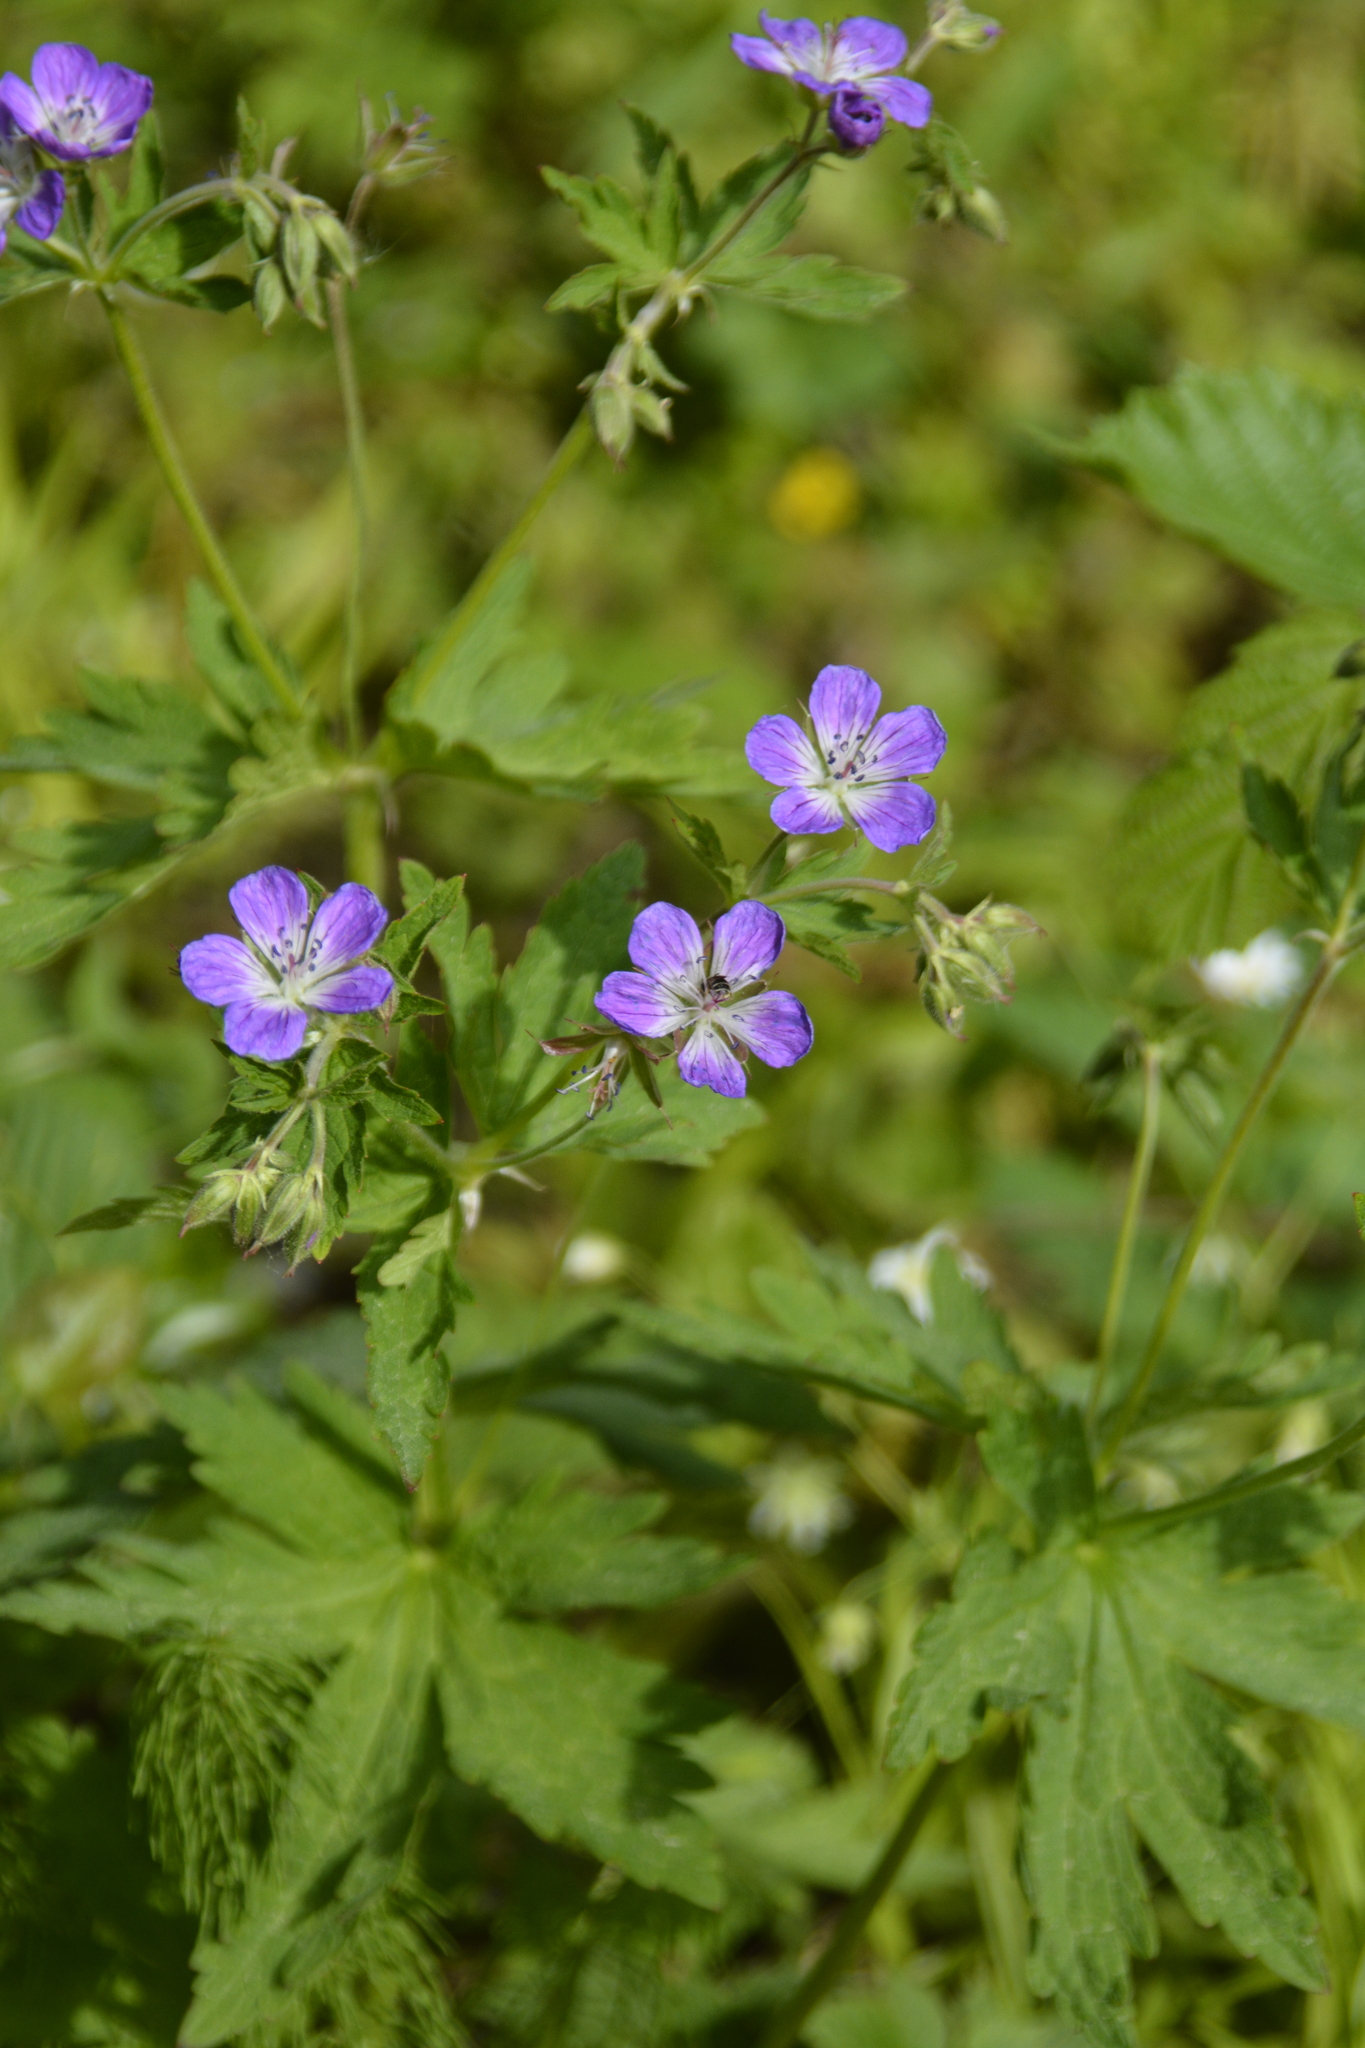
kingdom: Plantae
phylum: Tracheophyta
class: Magnoliopsida
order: Geraniales
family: Geraniaceae
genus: Geranium
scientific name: Geranium sylvaticum
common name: Wood crane's-bill
